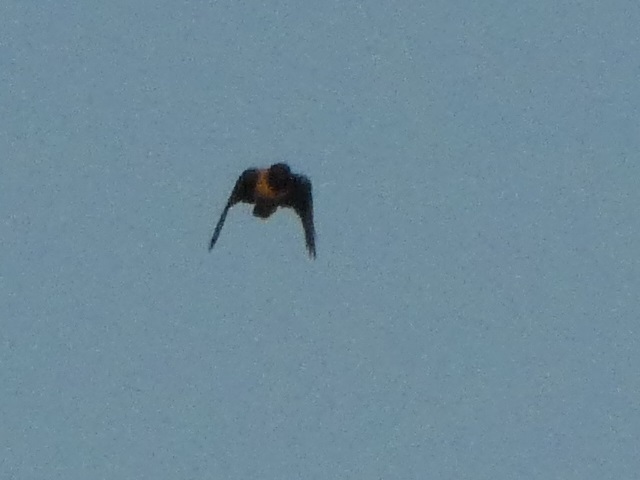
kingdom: Animalia
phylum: Chordata
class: Aves
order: Passeriformes
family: Corvidae
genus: Corvus
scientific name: Corvus cornix
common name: Hooded crow
